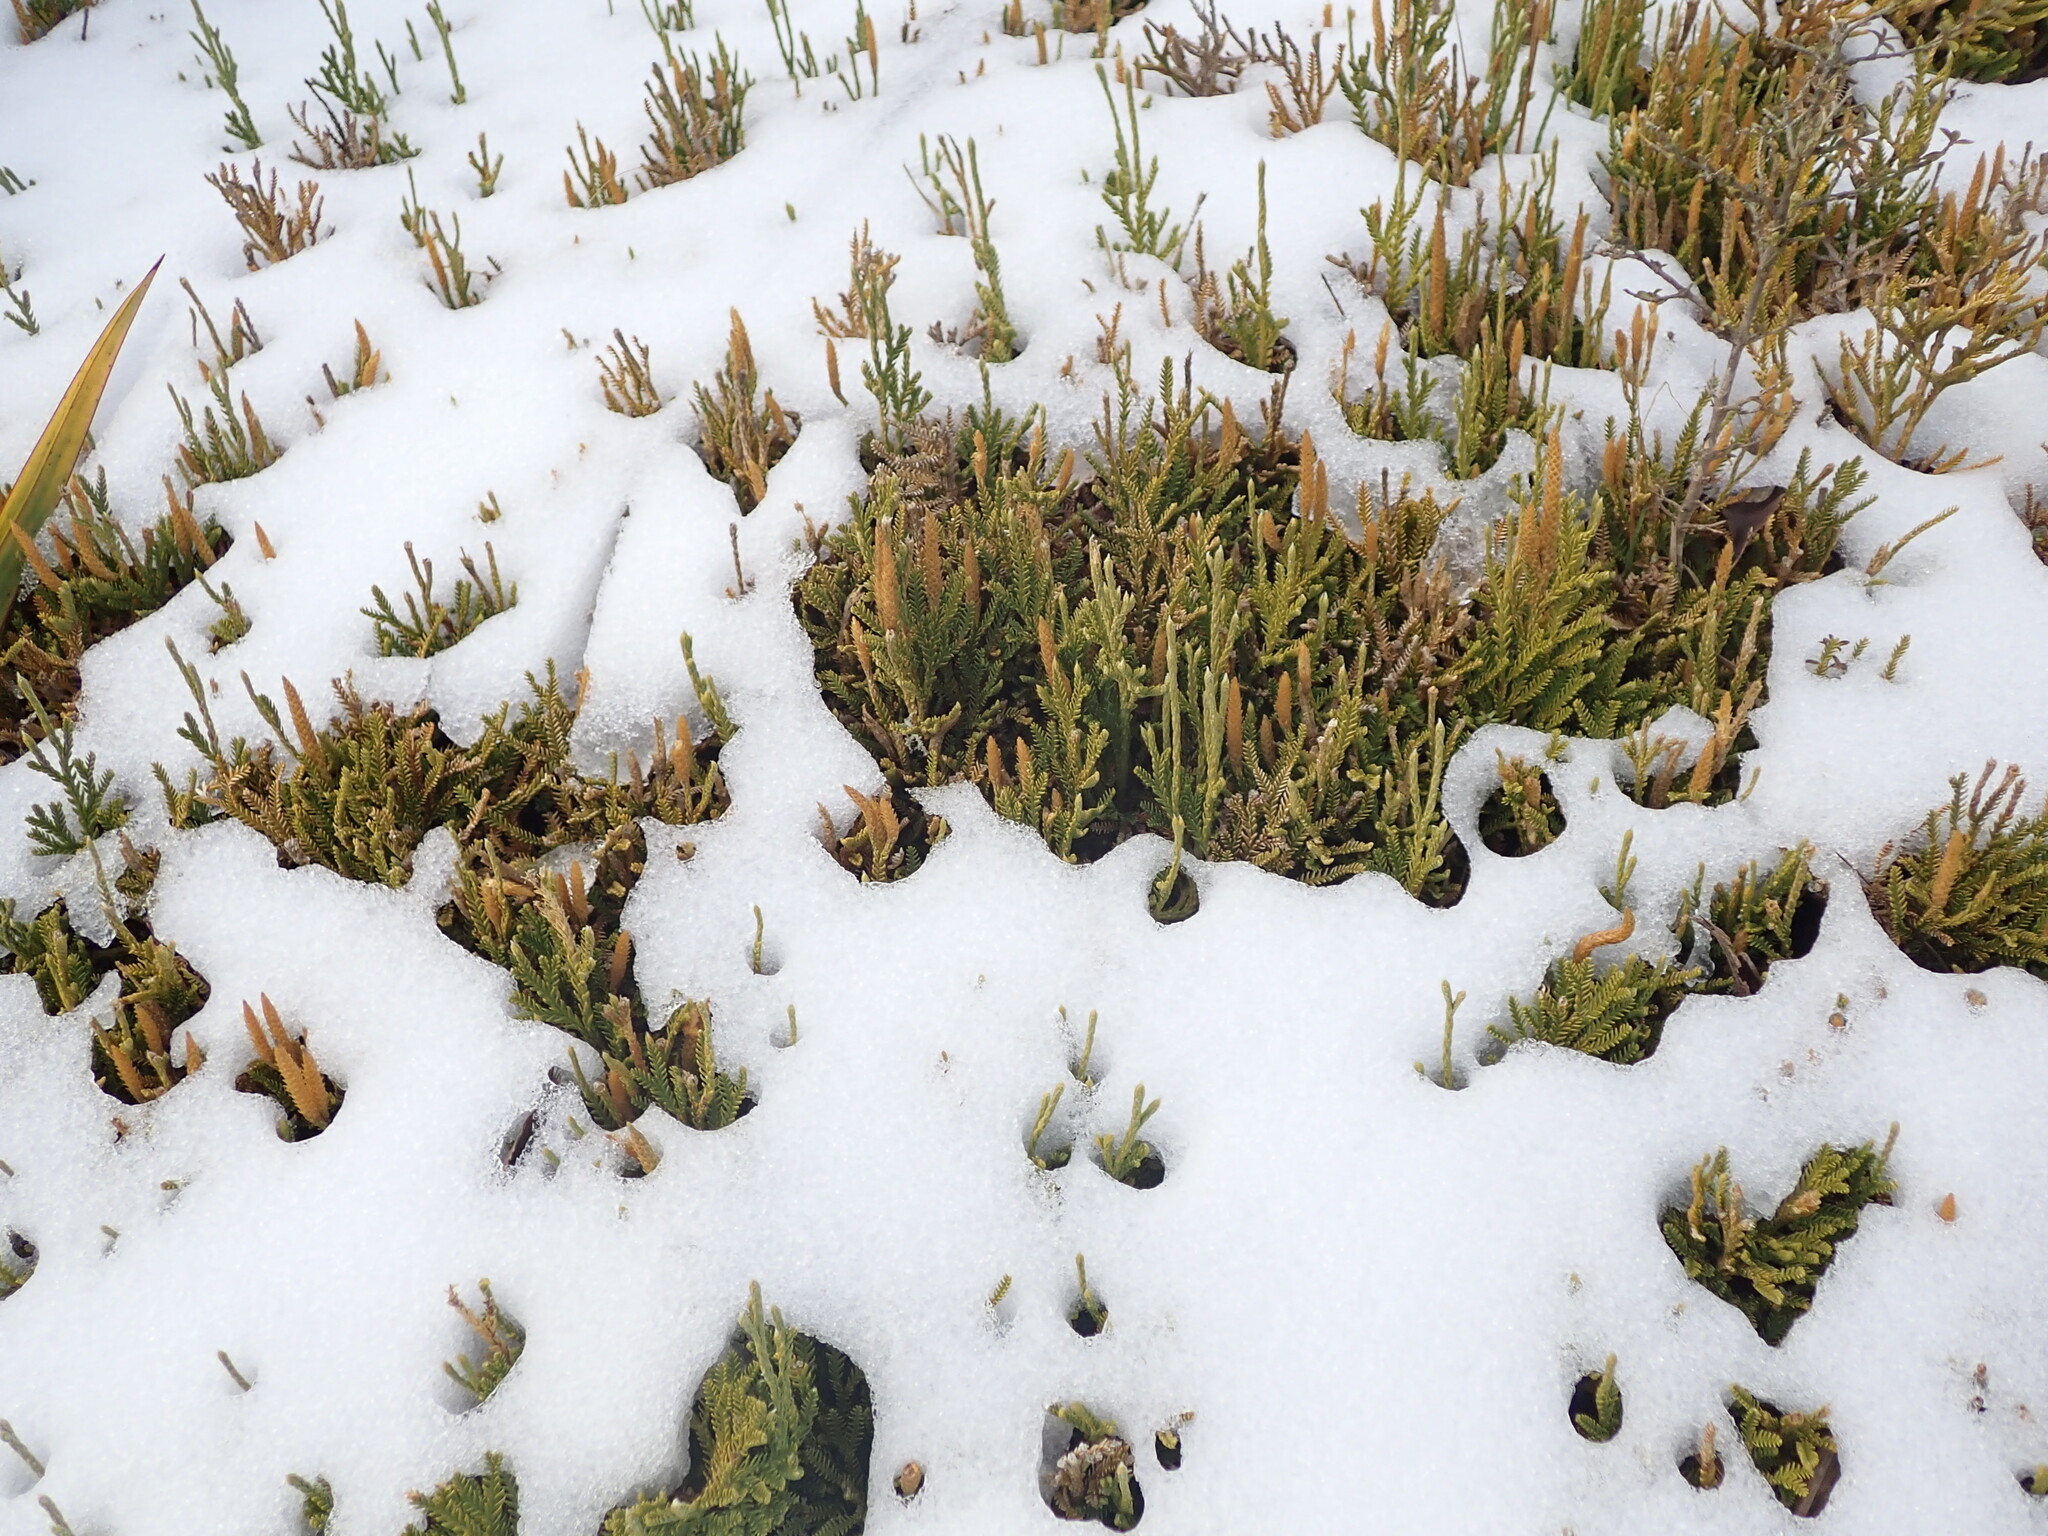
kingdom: Plantae
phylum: Tracheophyta
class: Lycopodiopsida
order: Lycopodiales
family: Lycopodiaceae
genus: Diphasium
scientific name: Diphasium scariosum
